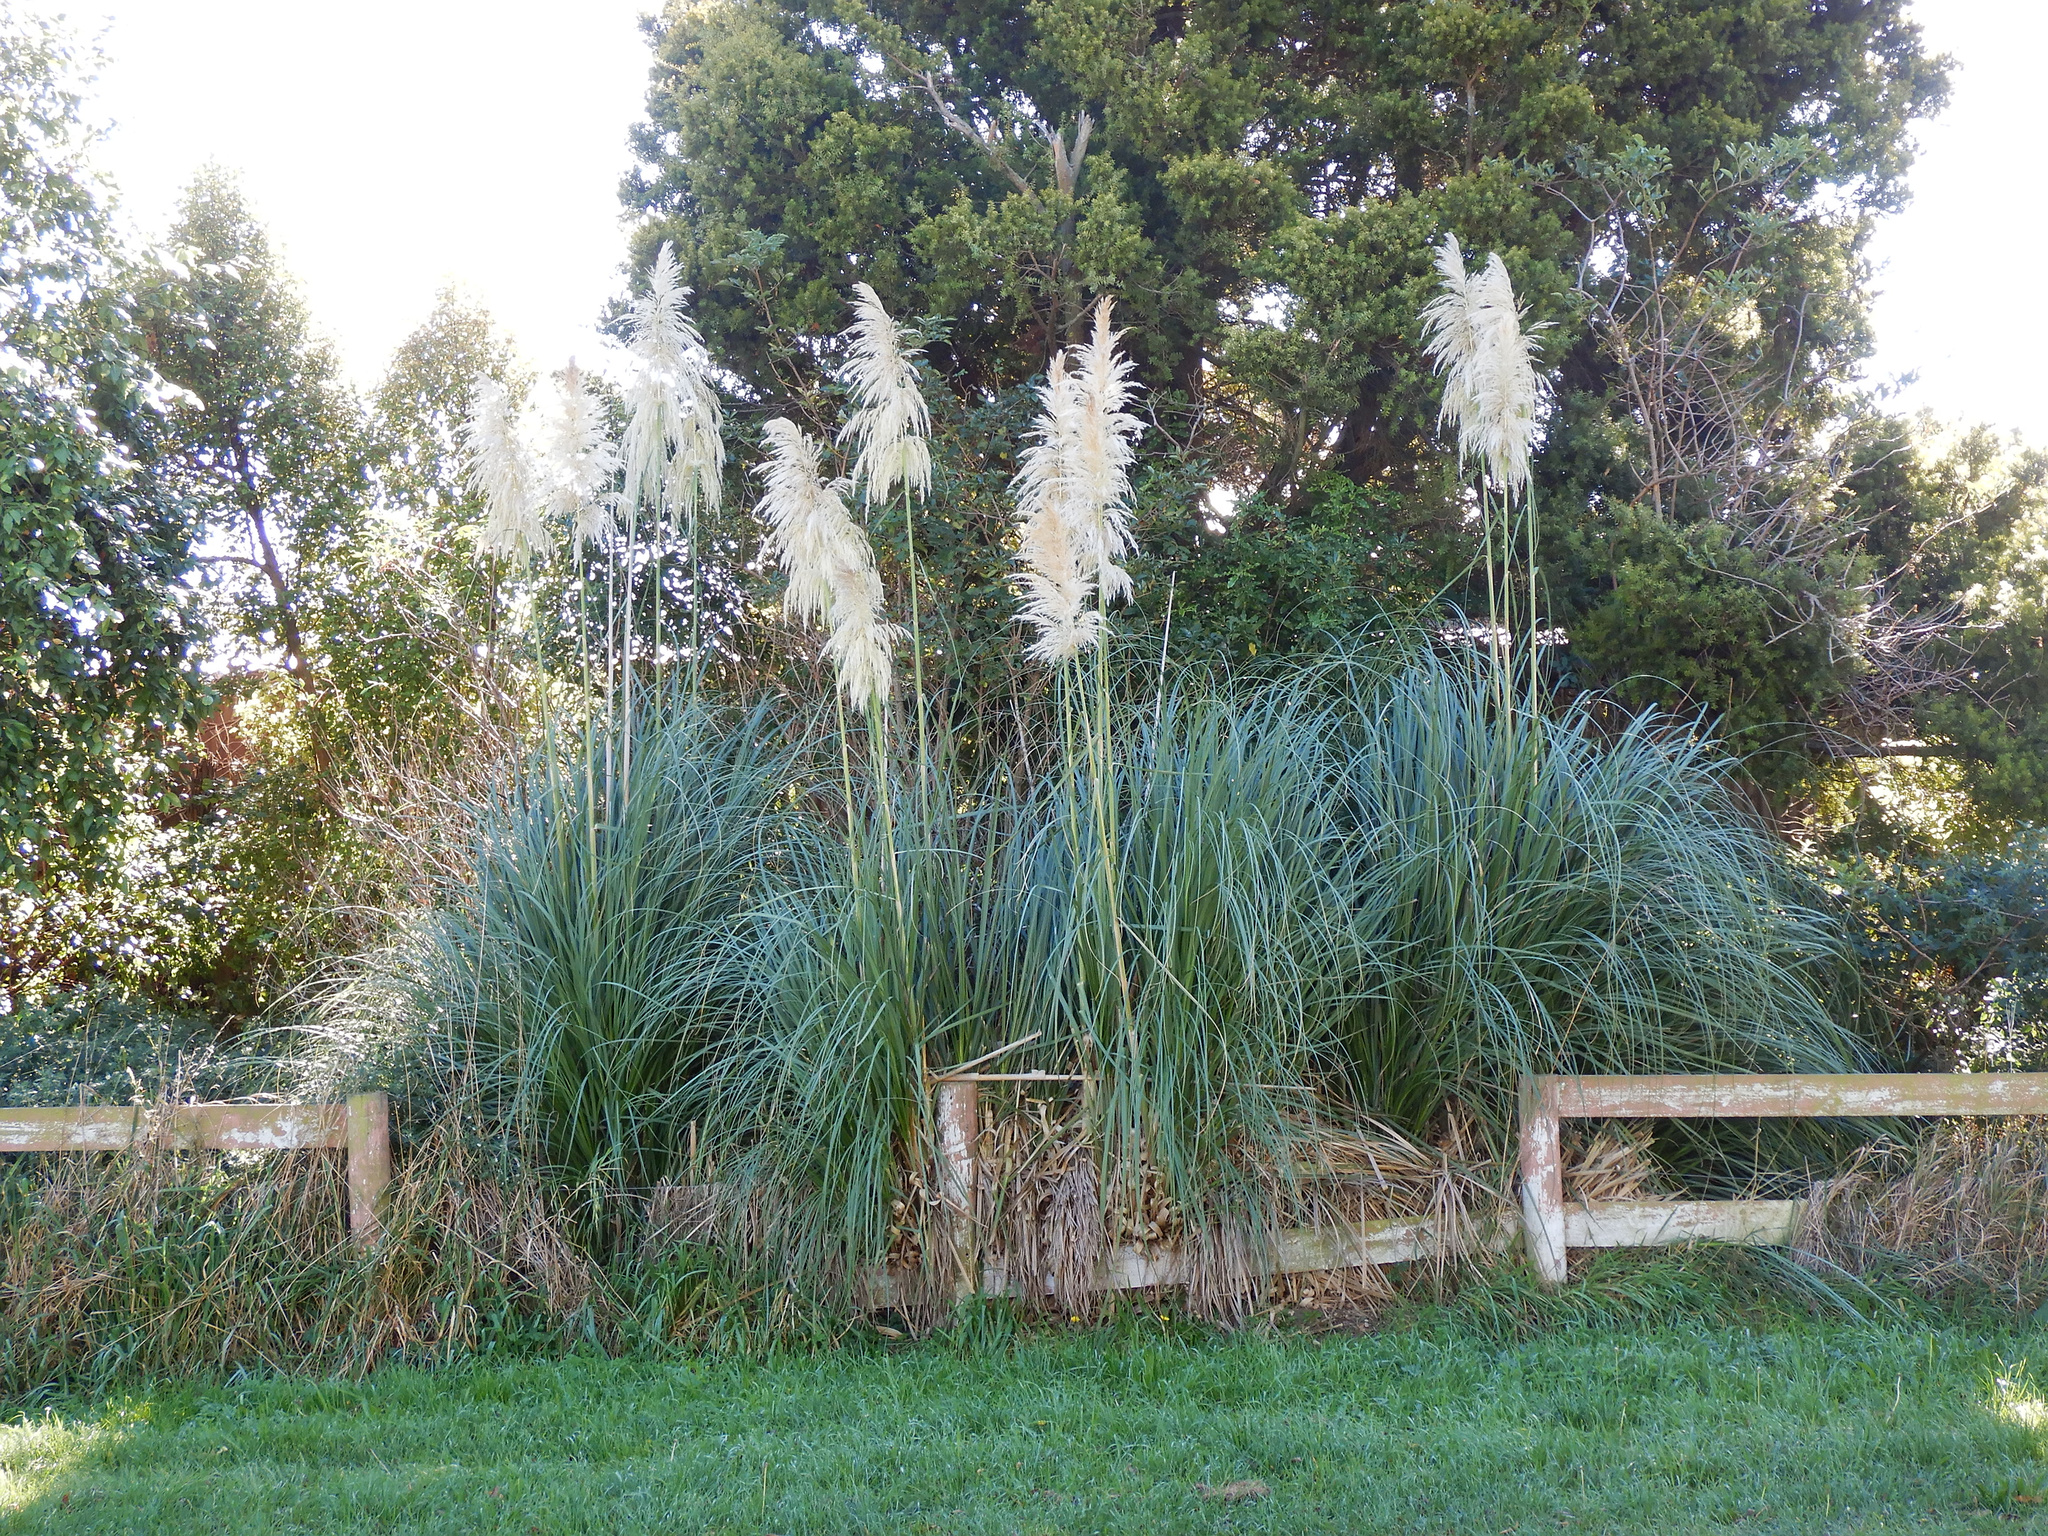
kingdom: Plantae
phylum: Tracheophyta
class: Liliopsida
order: Poales
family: Poaceae
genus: Cortaderia
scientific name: Cortaderia selloana
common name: Uruguayan pampas grass
